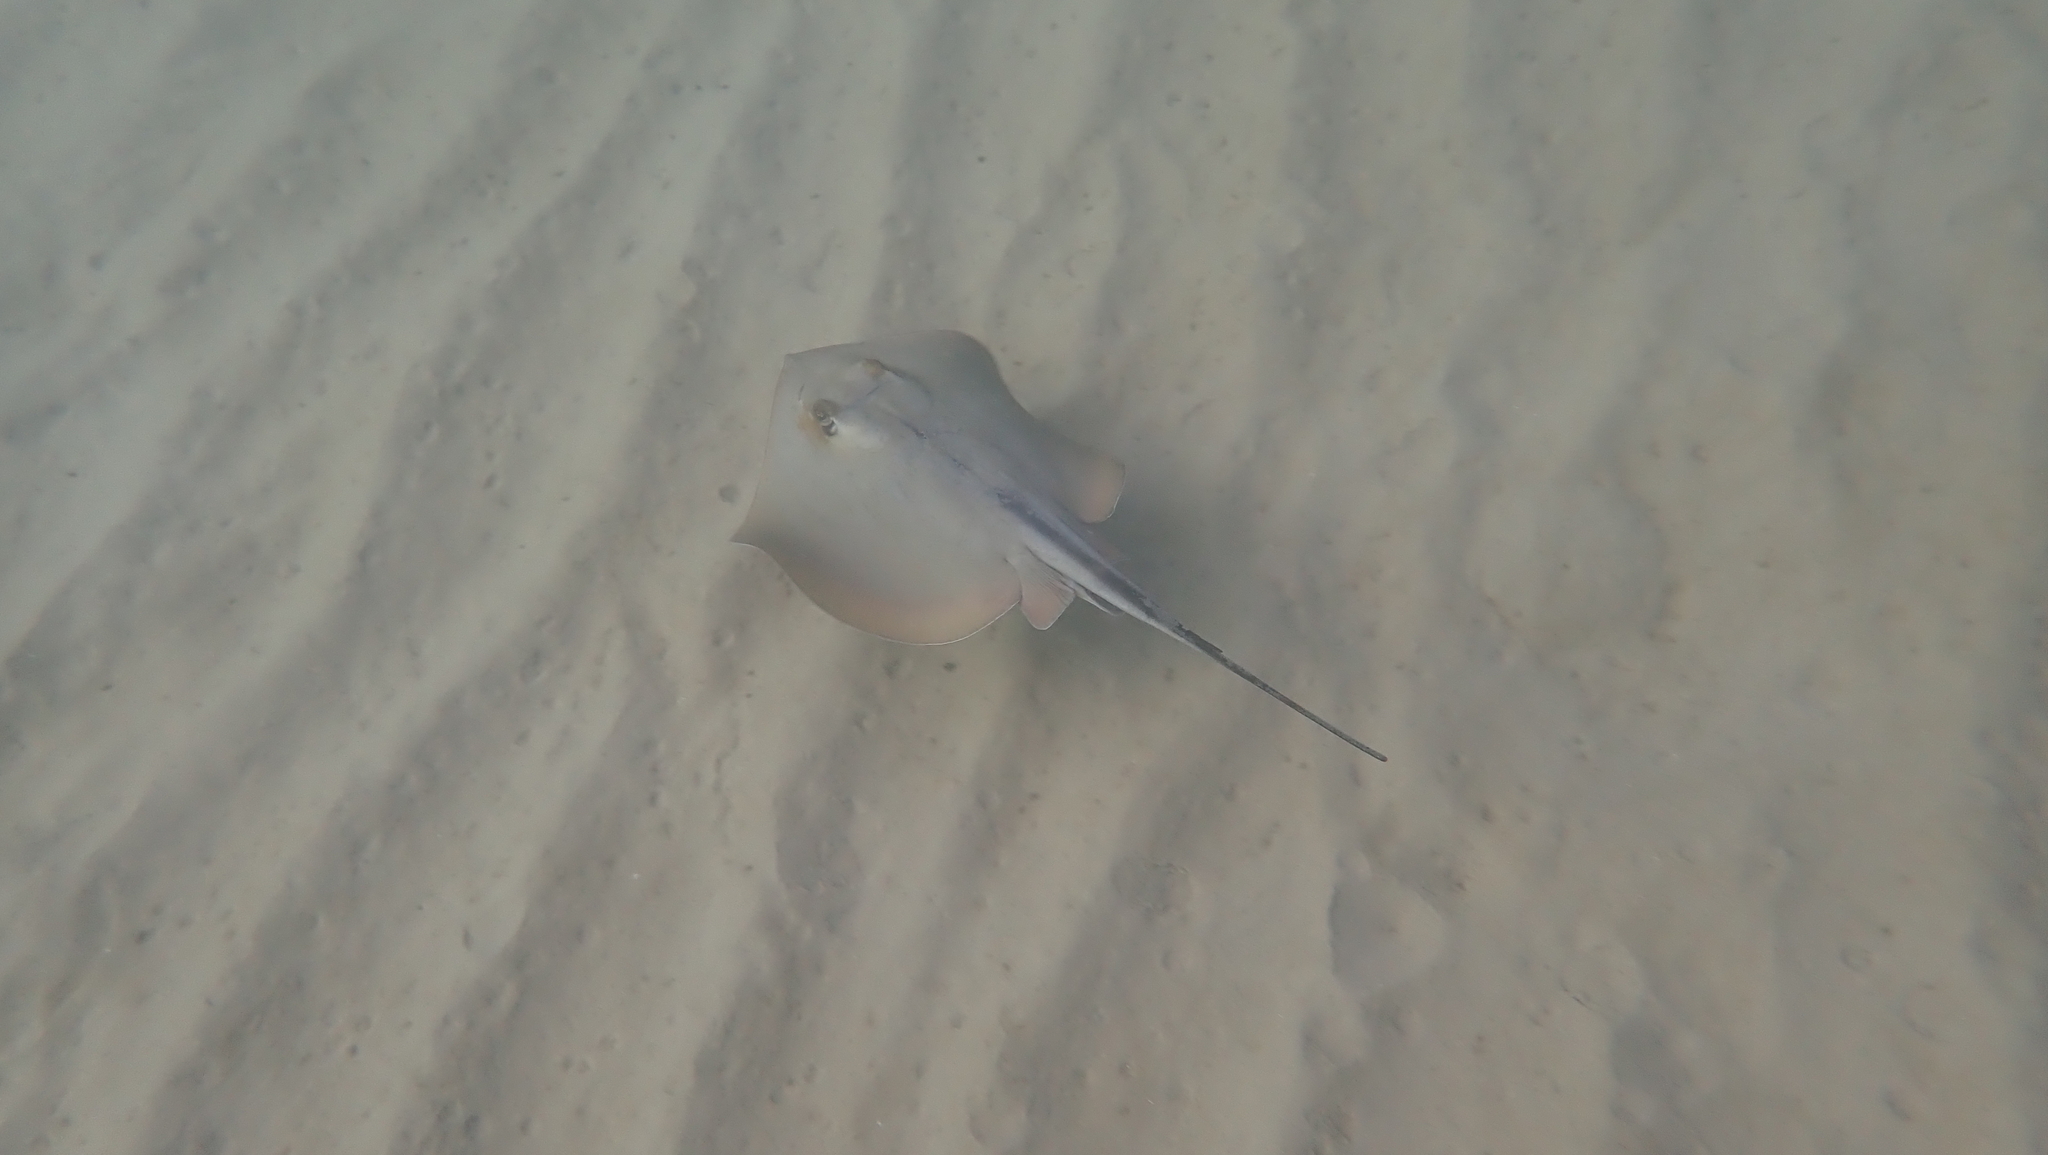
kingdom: Animalia
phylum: Chordata
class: Elasmobranchii
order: Myliobatiformes
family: Dasyatidae
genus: Dasyatis
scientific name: Dasyatis pastinaca
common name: Common stingray
